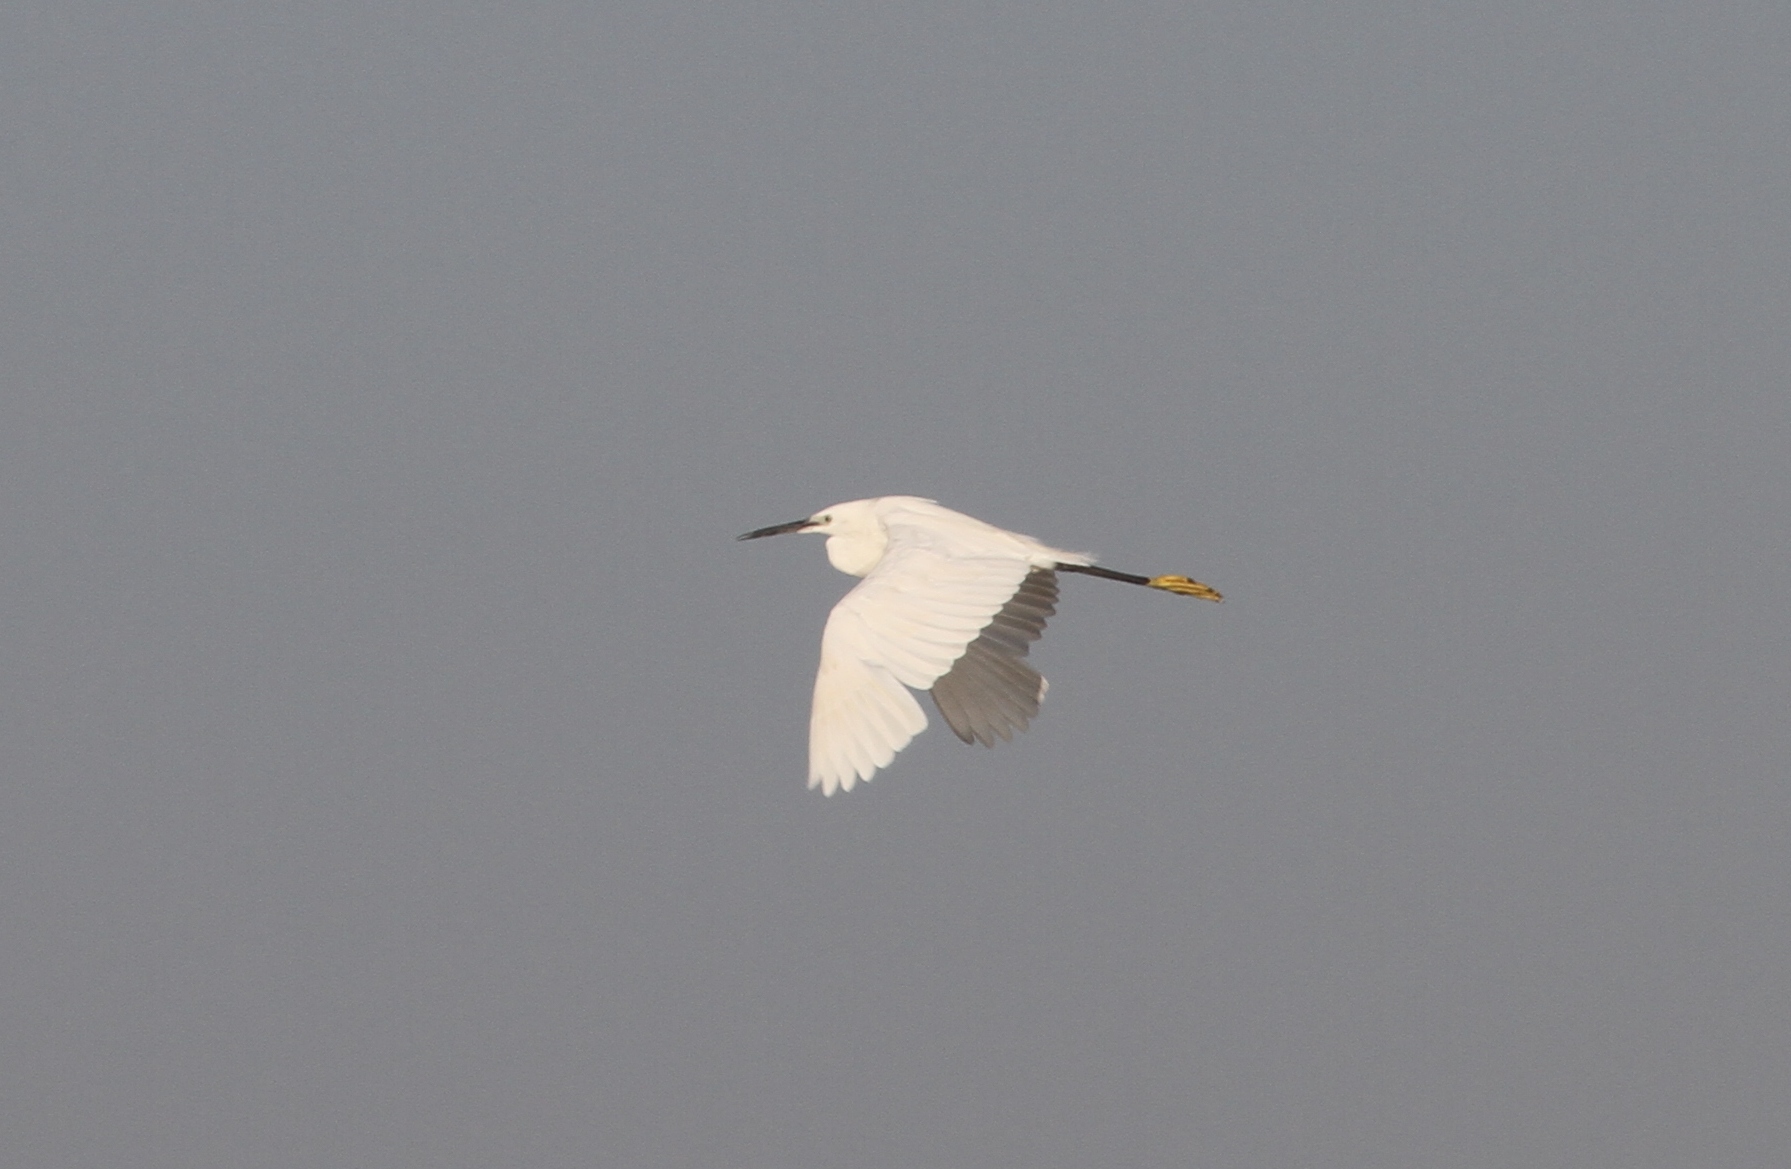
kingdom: Animalia
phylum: Chordata
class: Aves
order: Pelecaniformes
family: Ardeidae
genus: Egretta
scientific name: Egretta garzetta
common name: Little egret
